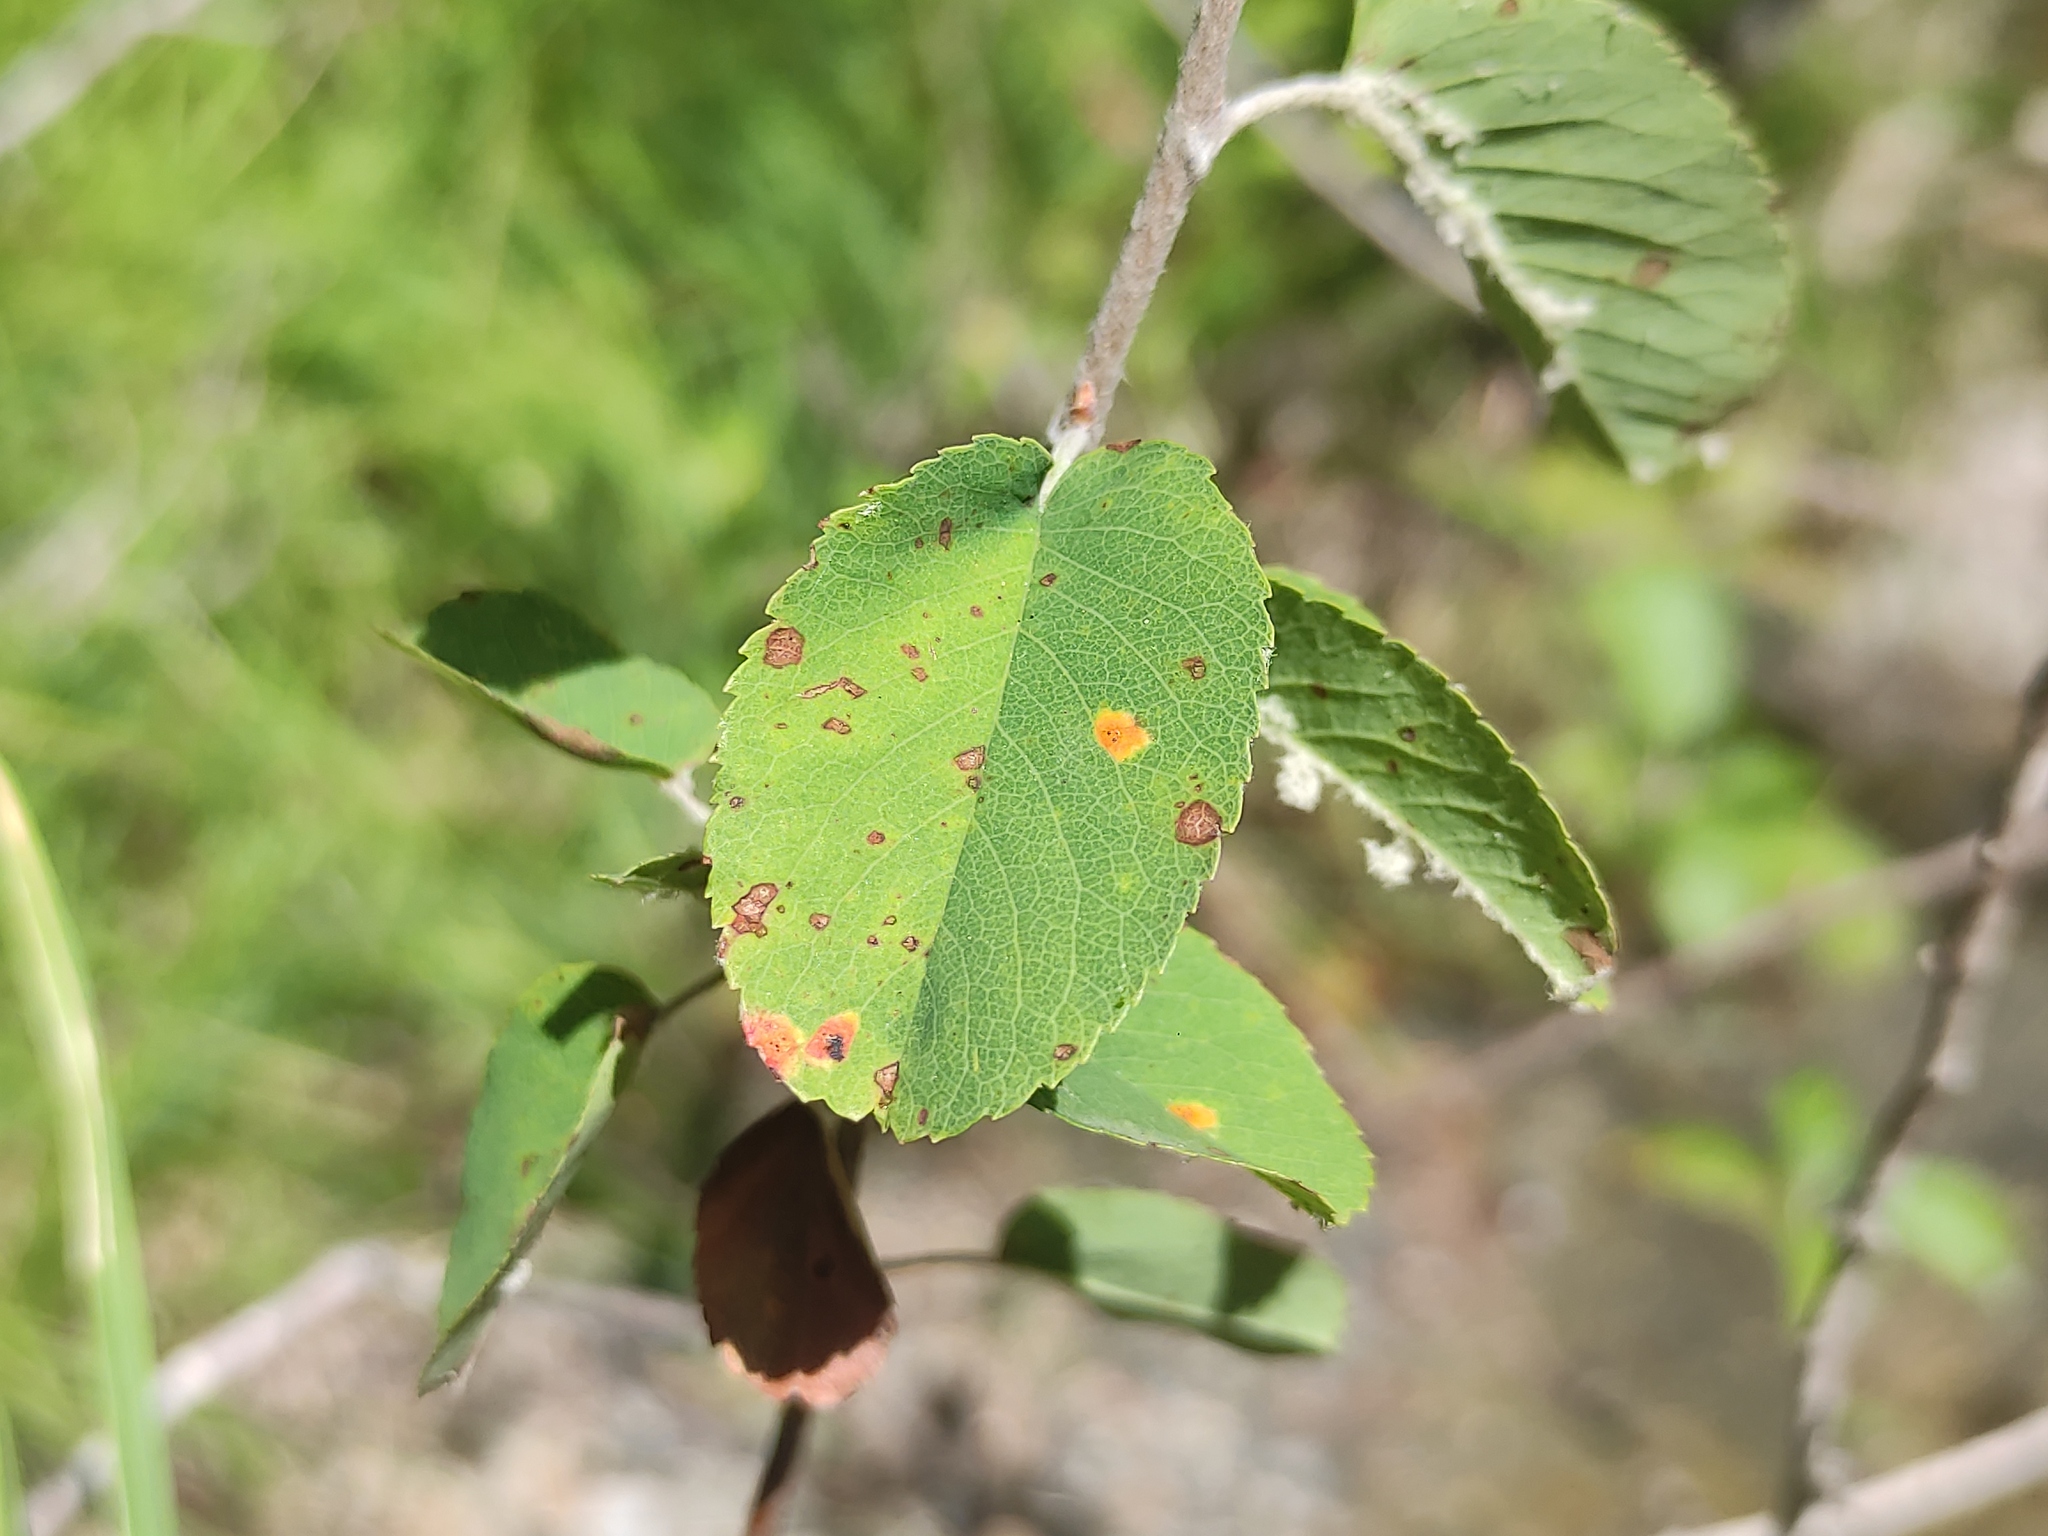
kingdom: Plantae
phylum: Tracheophyta
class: Magnoliopsida
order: Rosales
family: Rosaceae
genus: Amelanchier
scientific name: Amelanchier ovalis
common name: Serviceberry
